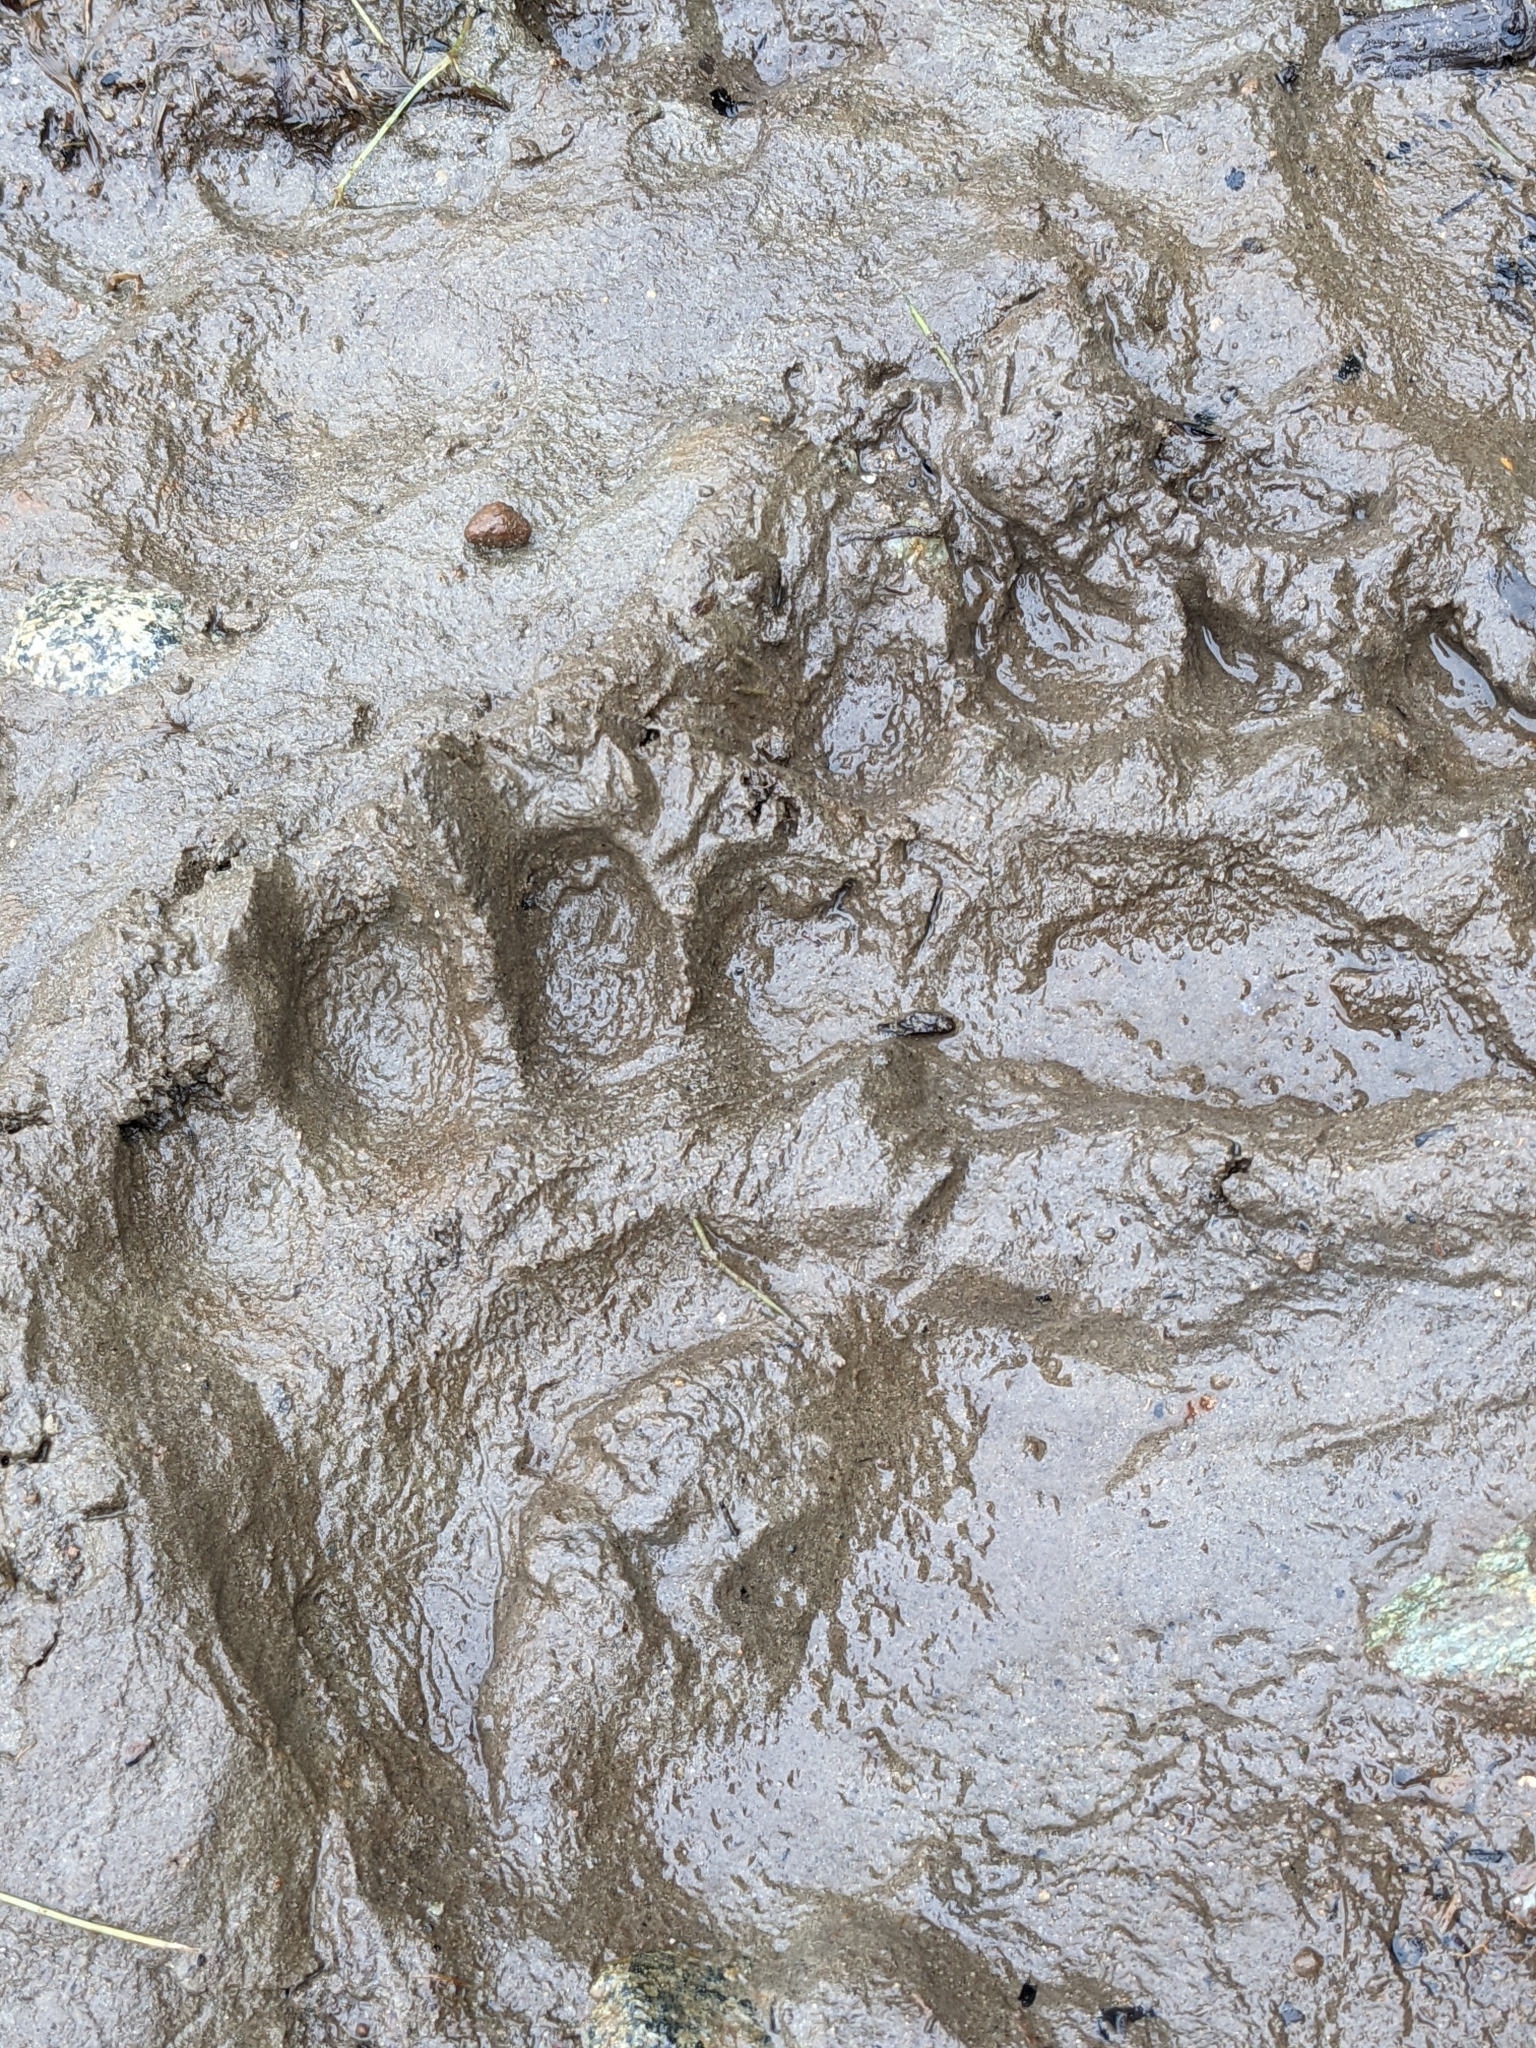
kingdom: Animalia
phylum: Chordata
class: Mammalia
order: Carnivora
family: Ursidae
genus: Ursus
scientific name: Ursus americanus
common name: American black bear
